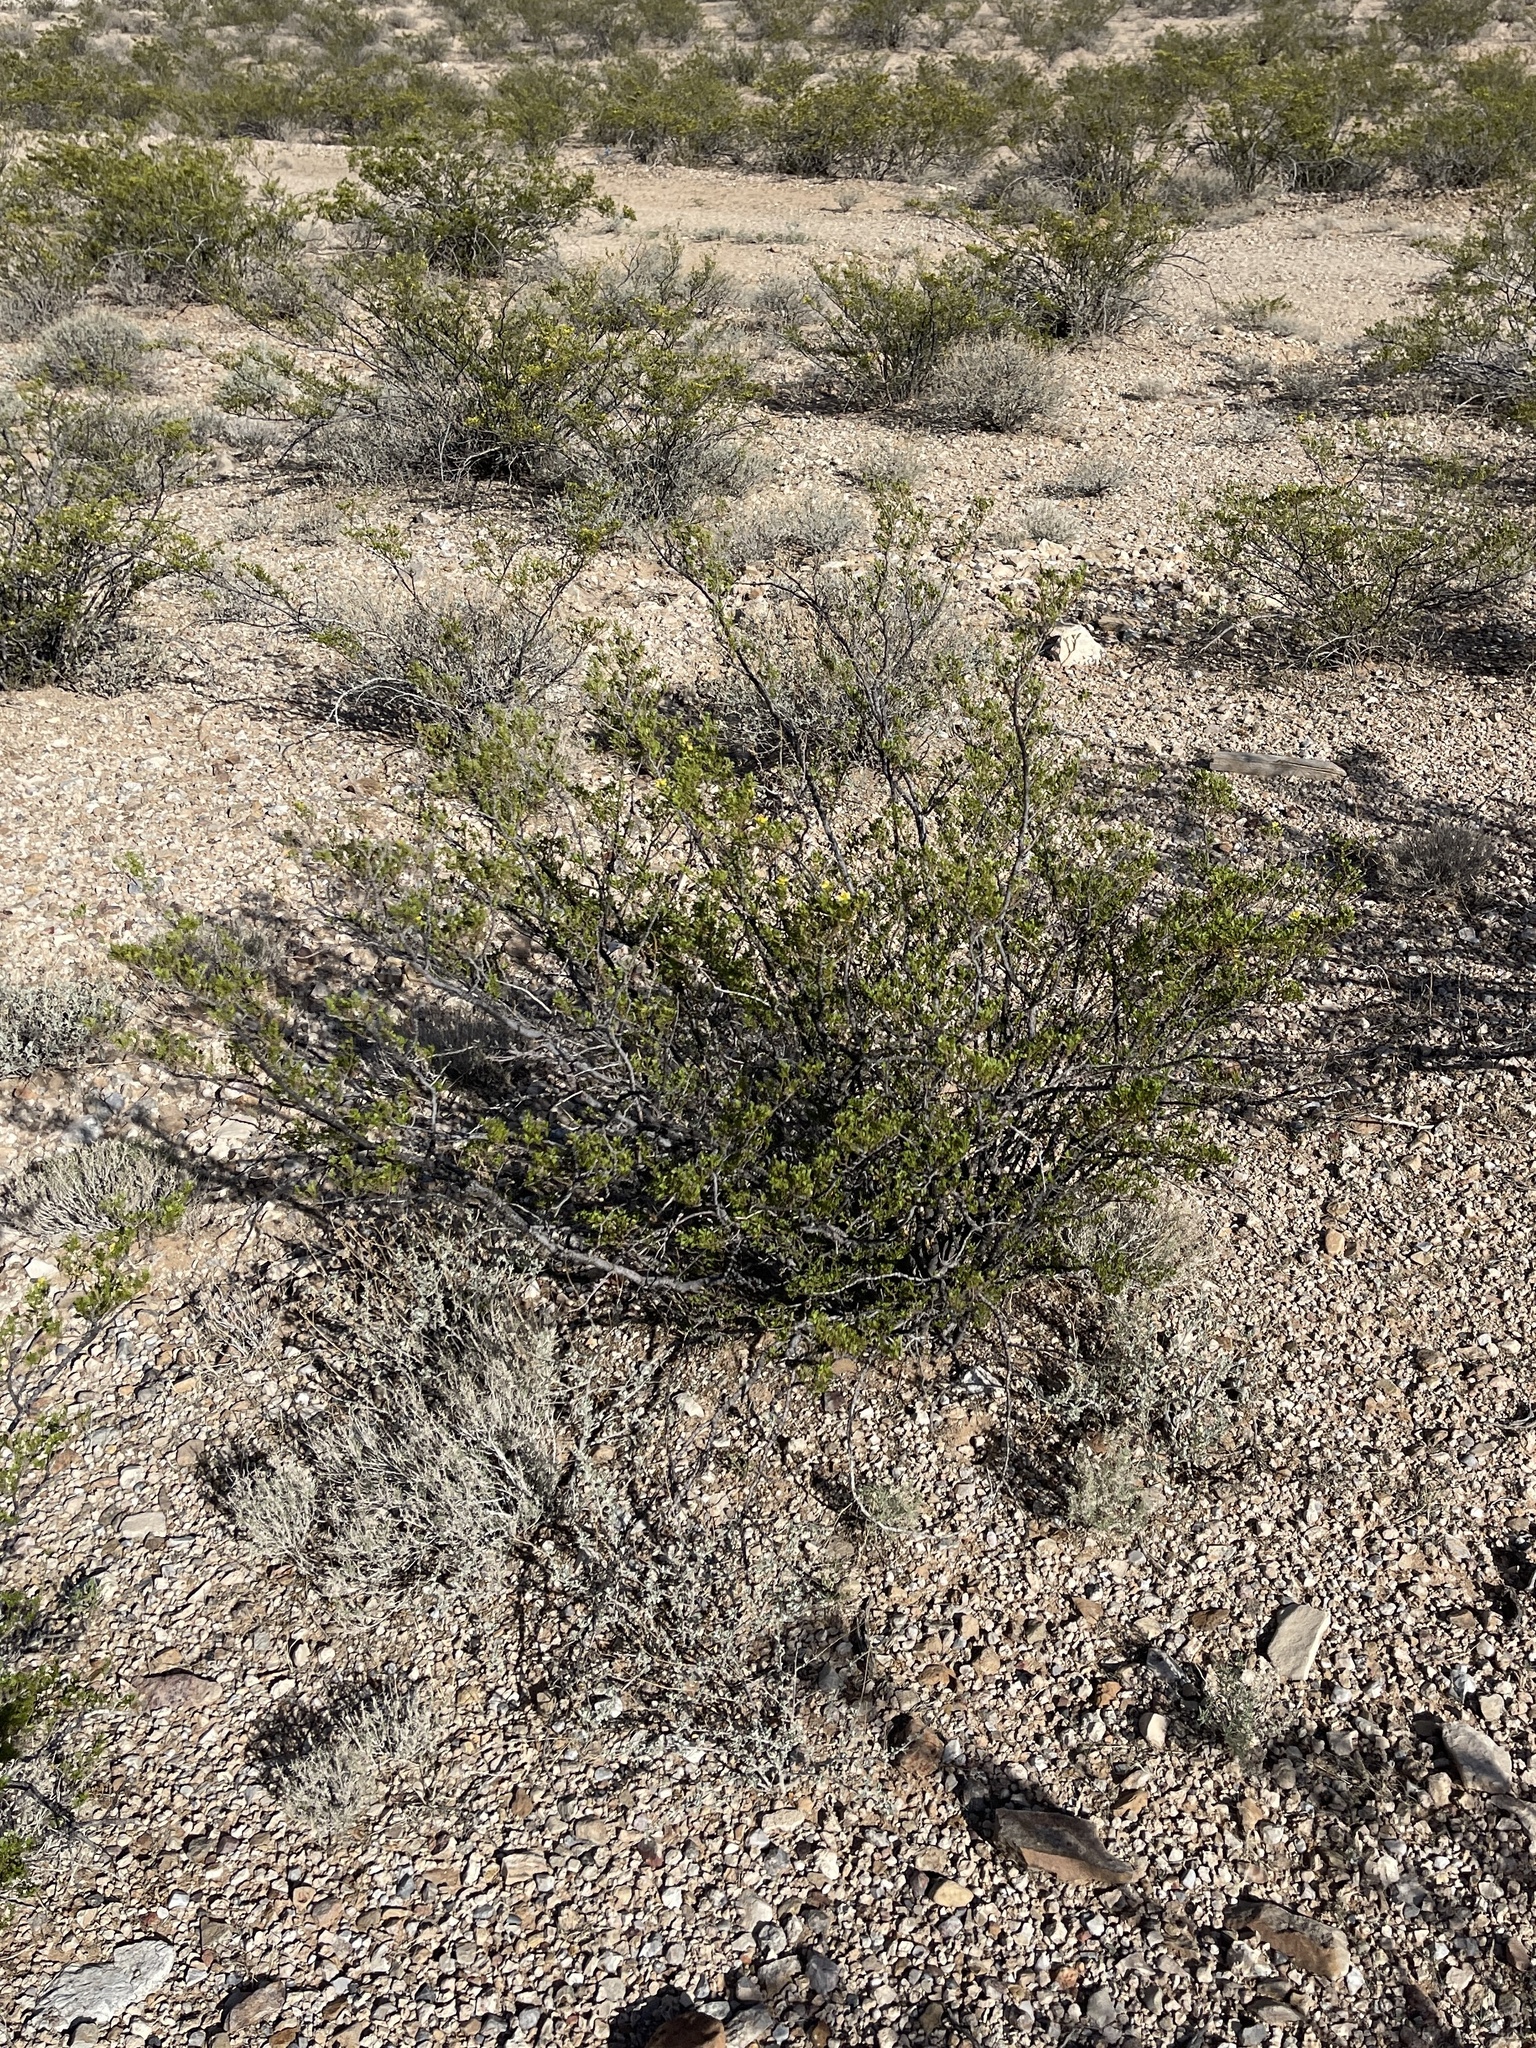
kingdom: Plantae
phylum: Tracheophyta
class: Magnoliopsida
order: Zygophyllales
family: Zygophyllaceae
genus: Larrea
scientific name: Larrea tridentata
